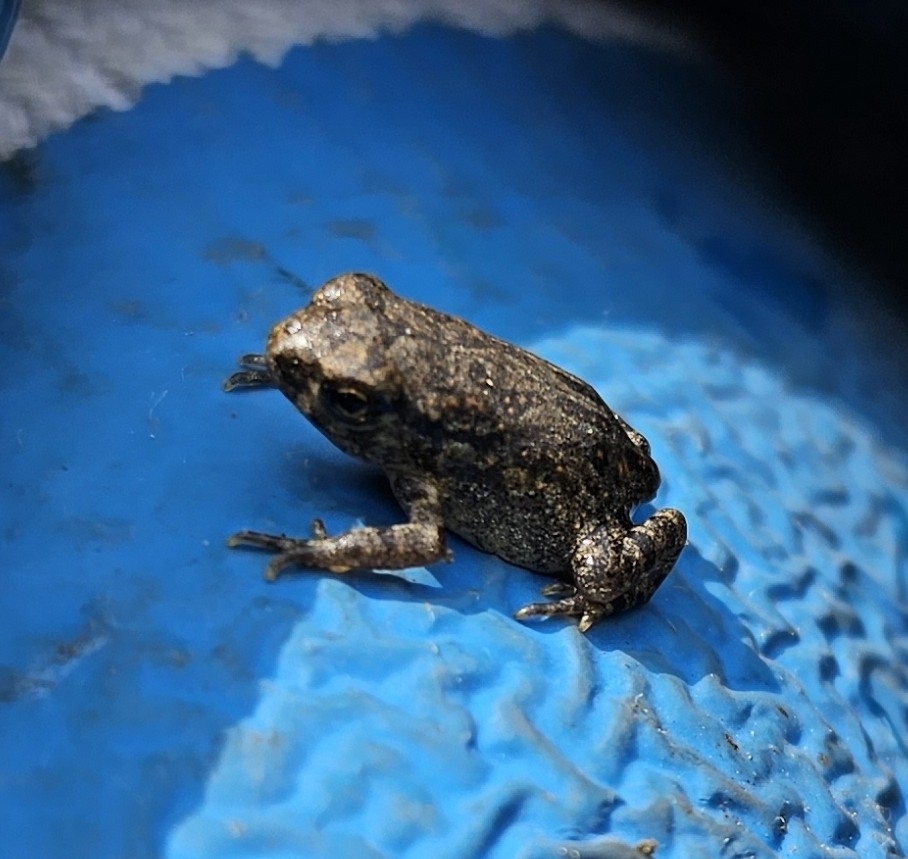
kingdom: Animalia
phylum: Chordata
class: Amphibia
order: Anura
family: Bufonidae
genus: Anaxyrus
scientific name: Anaxyrus fowleri
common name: Fowler's toad
